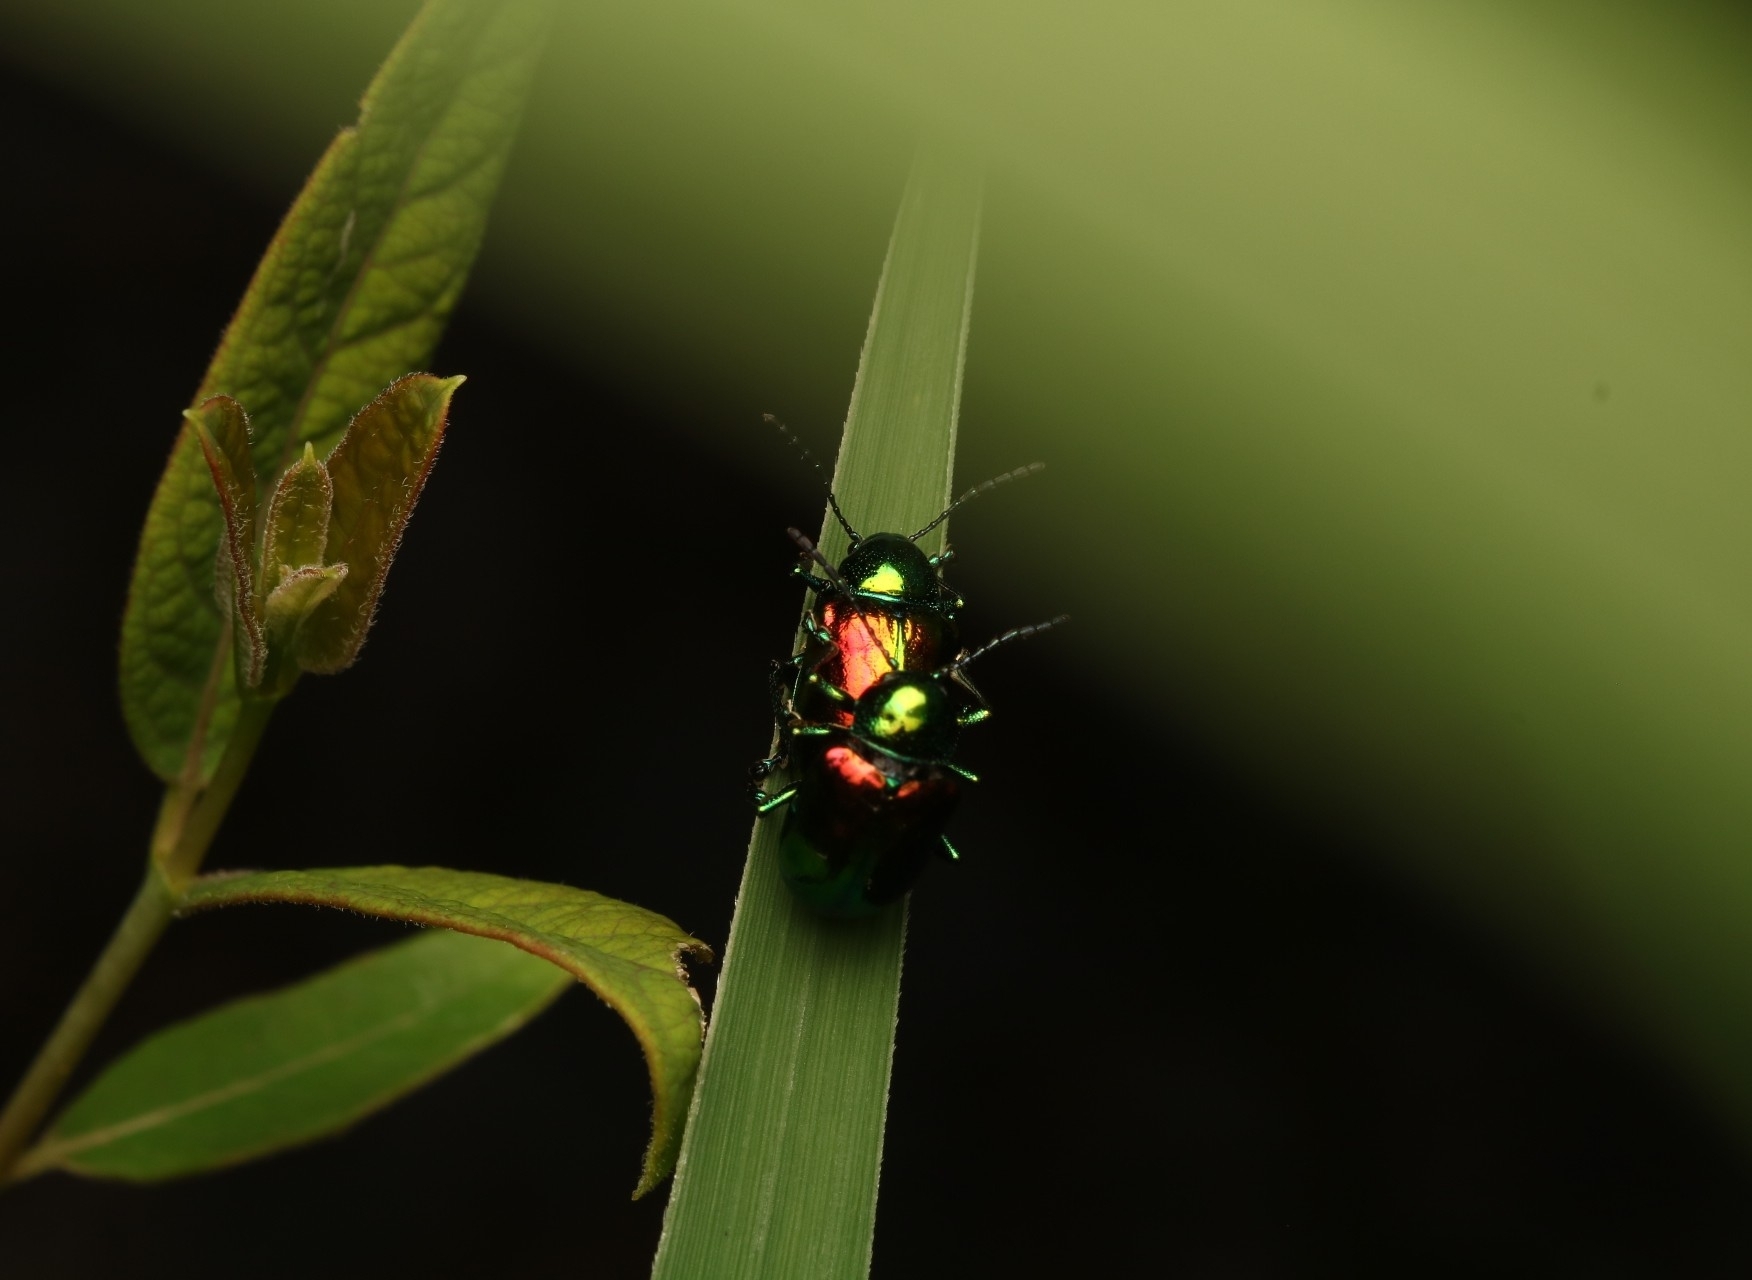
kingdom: Animalia
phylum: Arthropoda
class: Insecta
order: Coleoptera
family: Chrysomelidae
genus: Chrysochus
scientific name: Chrysochus auratus
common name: Dogbane leaf beetle
